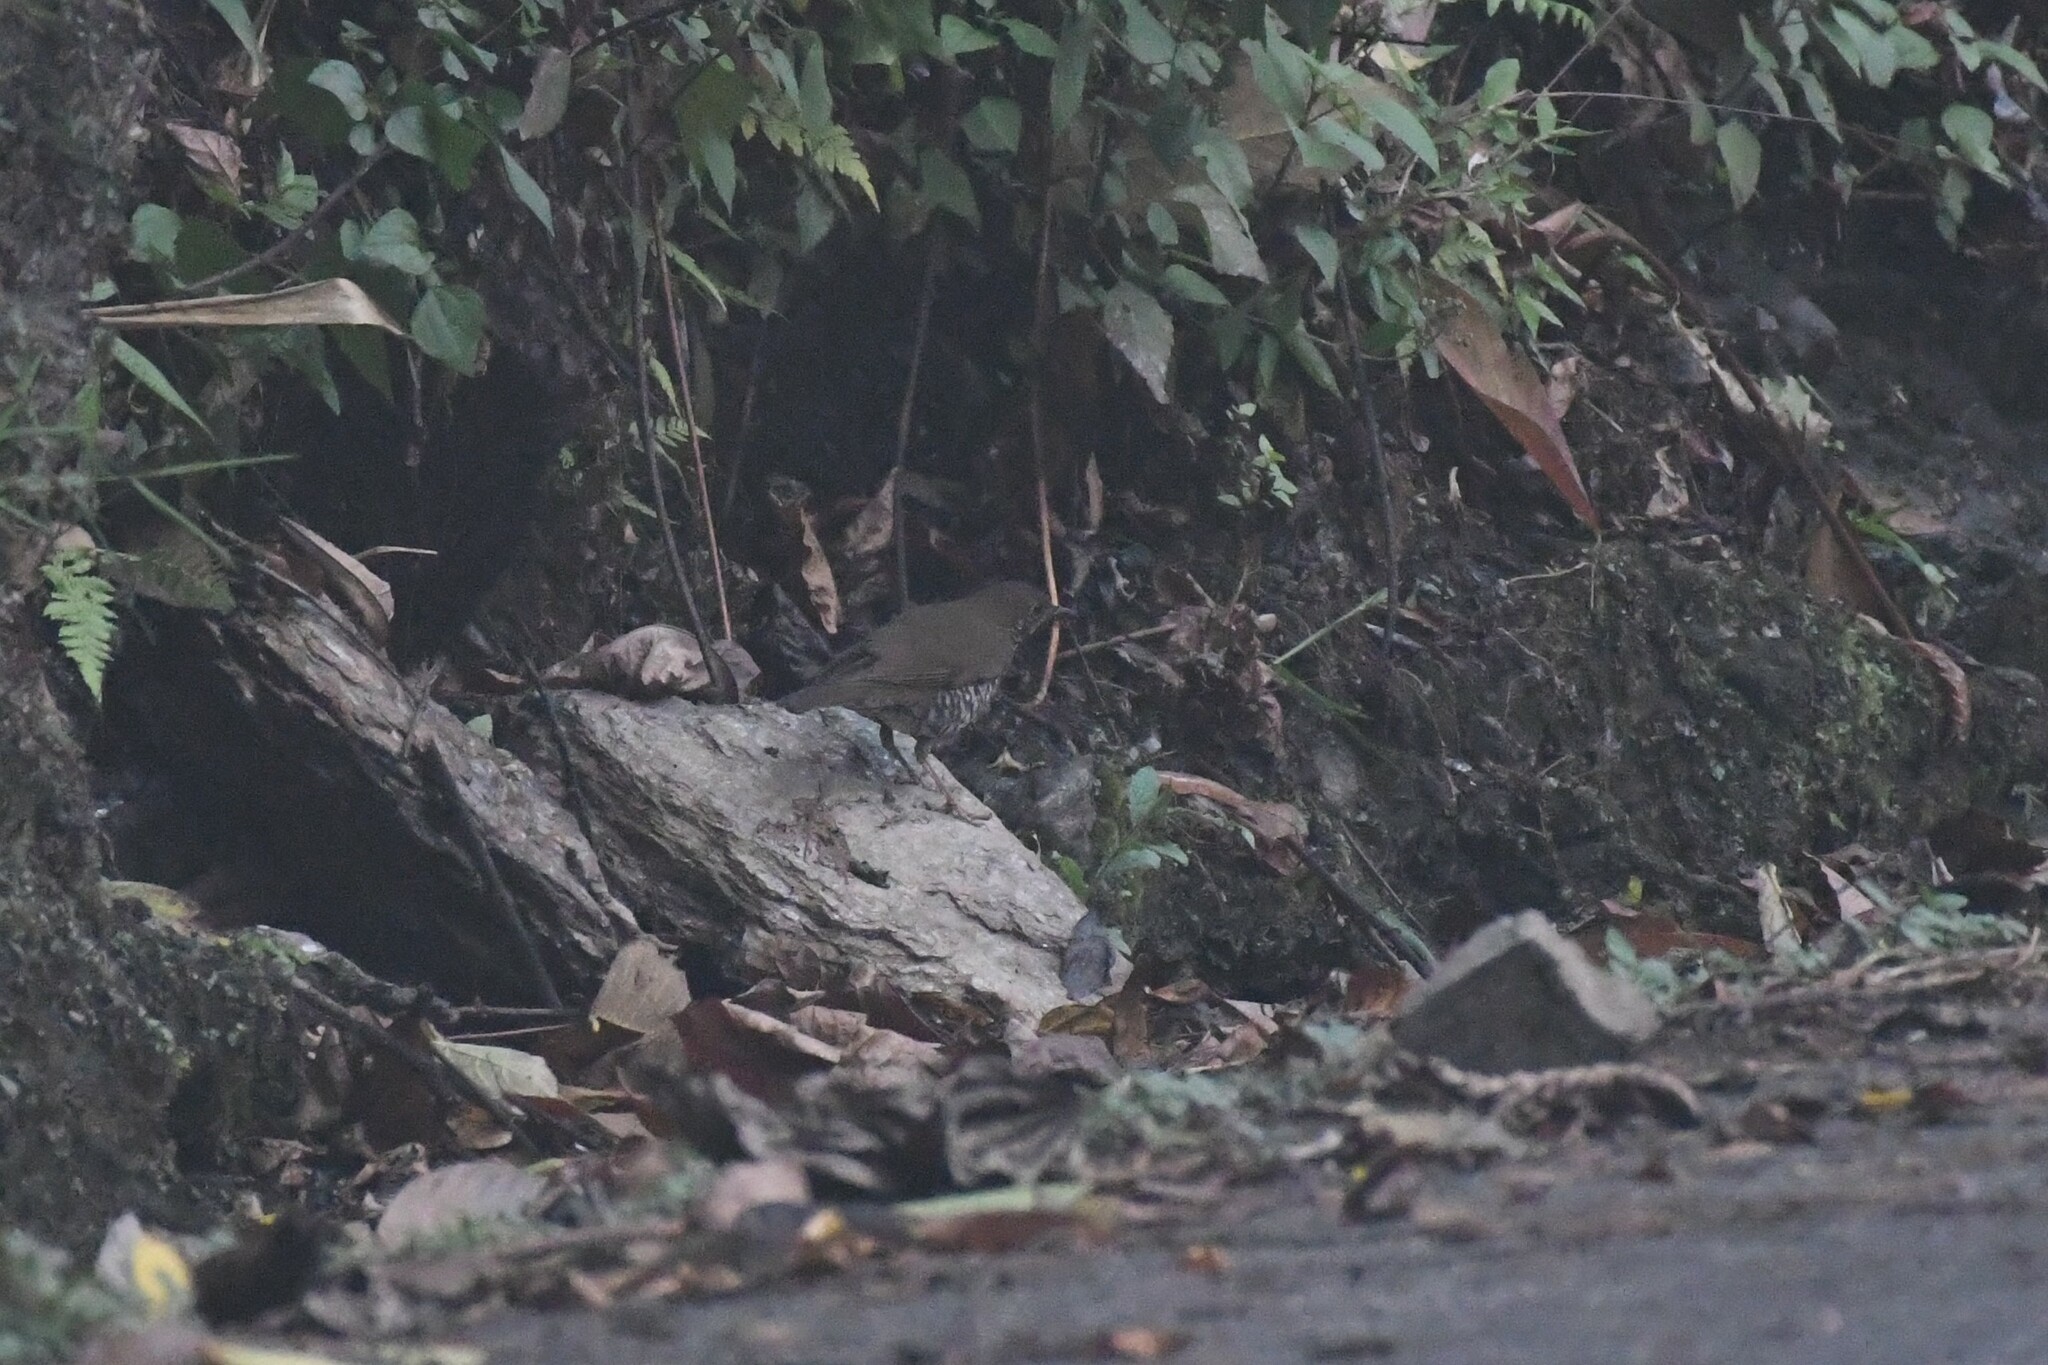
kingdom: Animalia
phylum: Chordata
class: Aves
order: Passeriformes
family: Turdidae
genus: Zoothera
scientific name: Zoothera mollissima
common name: Plain-backed thrush
